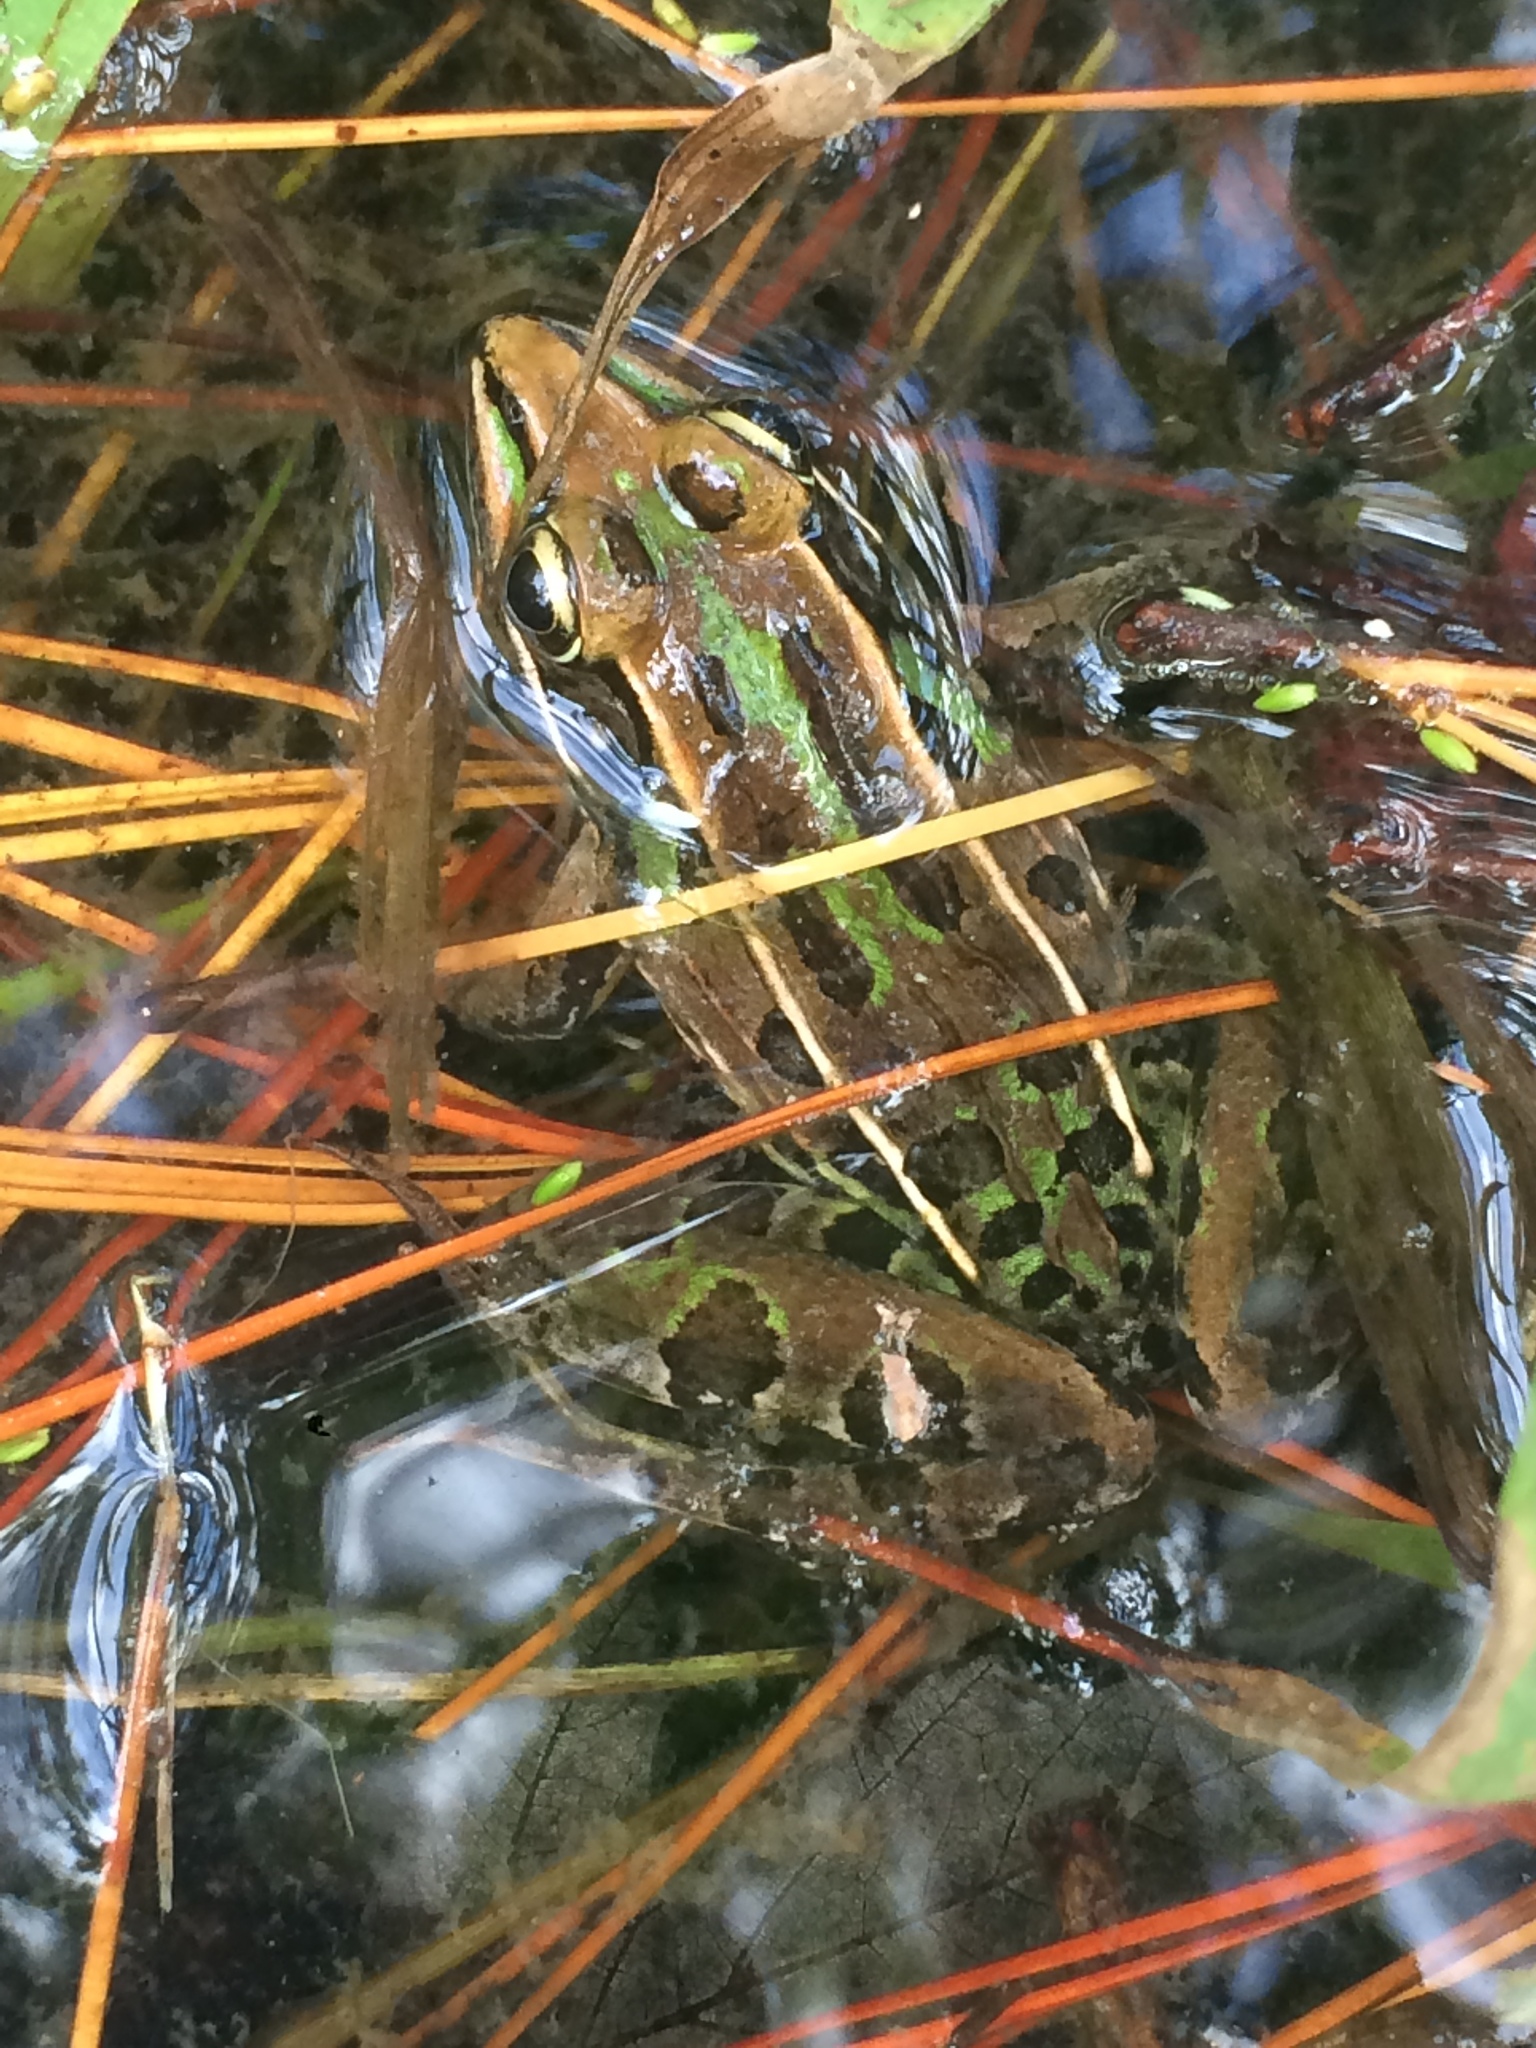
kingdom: Animalia
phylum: Chordata
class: Amphibia
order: Anura
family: Ranidae
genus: Lithobates
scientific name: Lithobates sphenocephalus
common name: Southern leopard frog
